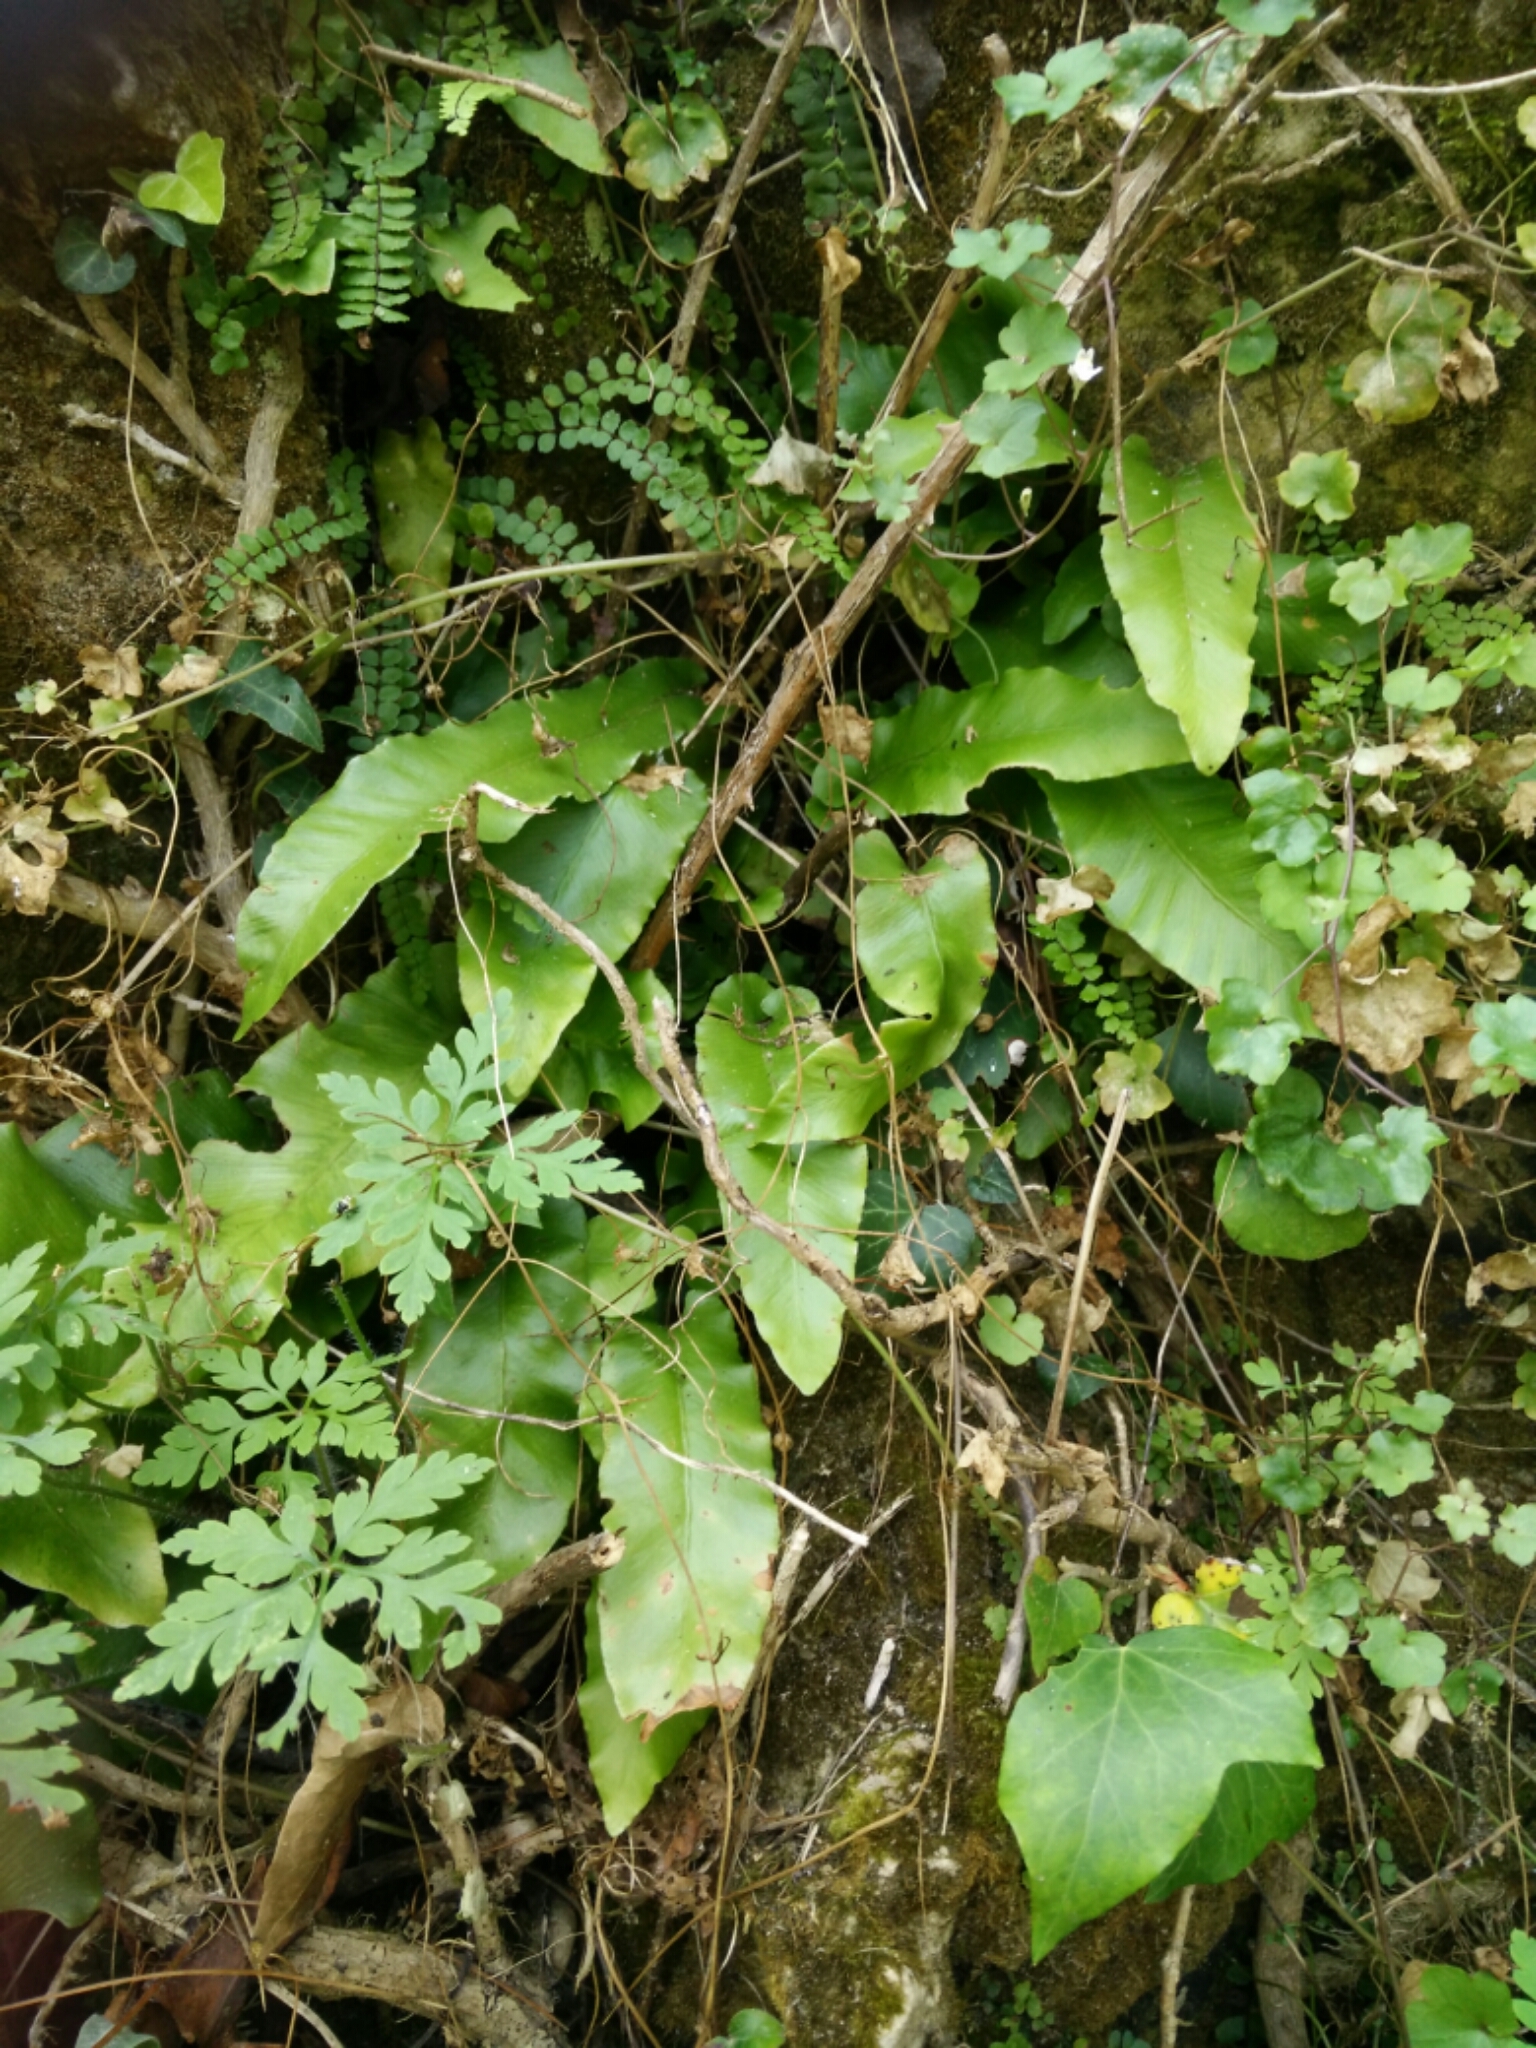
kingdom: Plantae
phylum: Tracheophyta
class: Polypodiopsida
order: Polypodiales
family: Aspleniaceae
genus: Asplenium
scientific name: Asplenium scolopendrium
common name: Hart's-tongue fern
